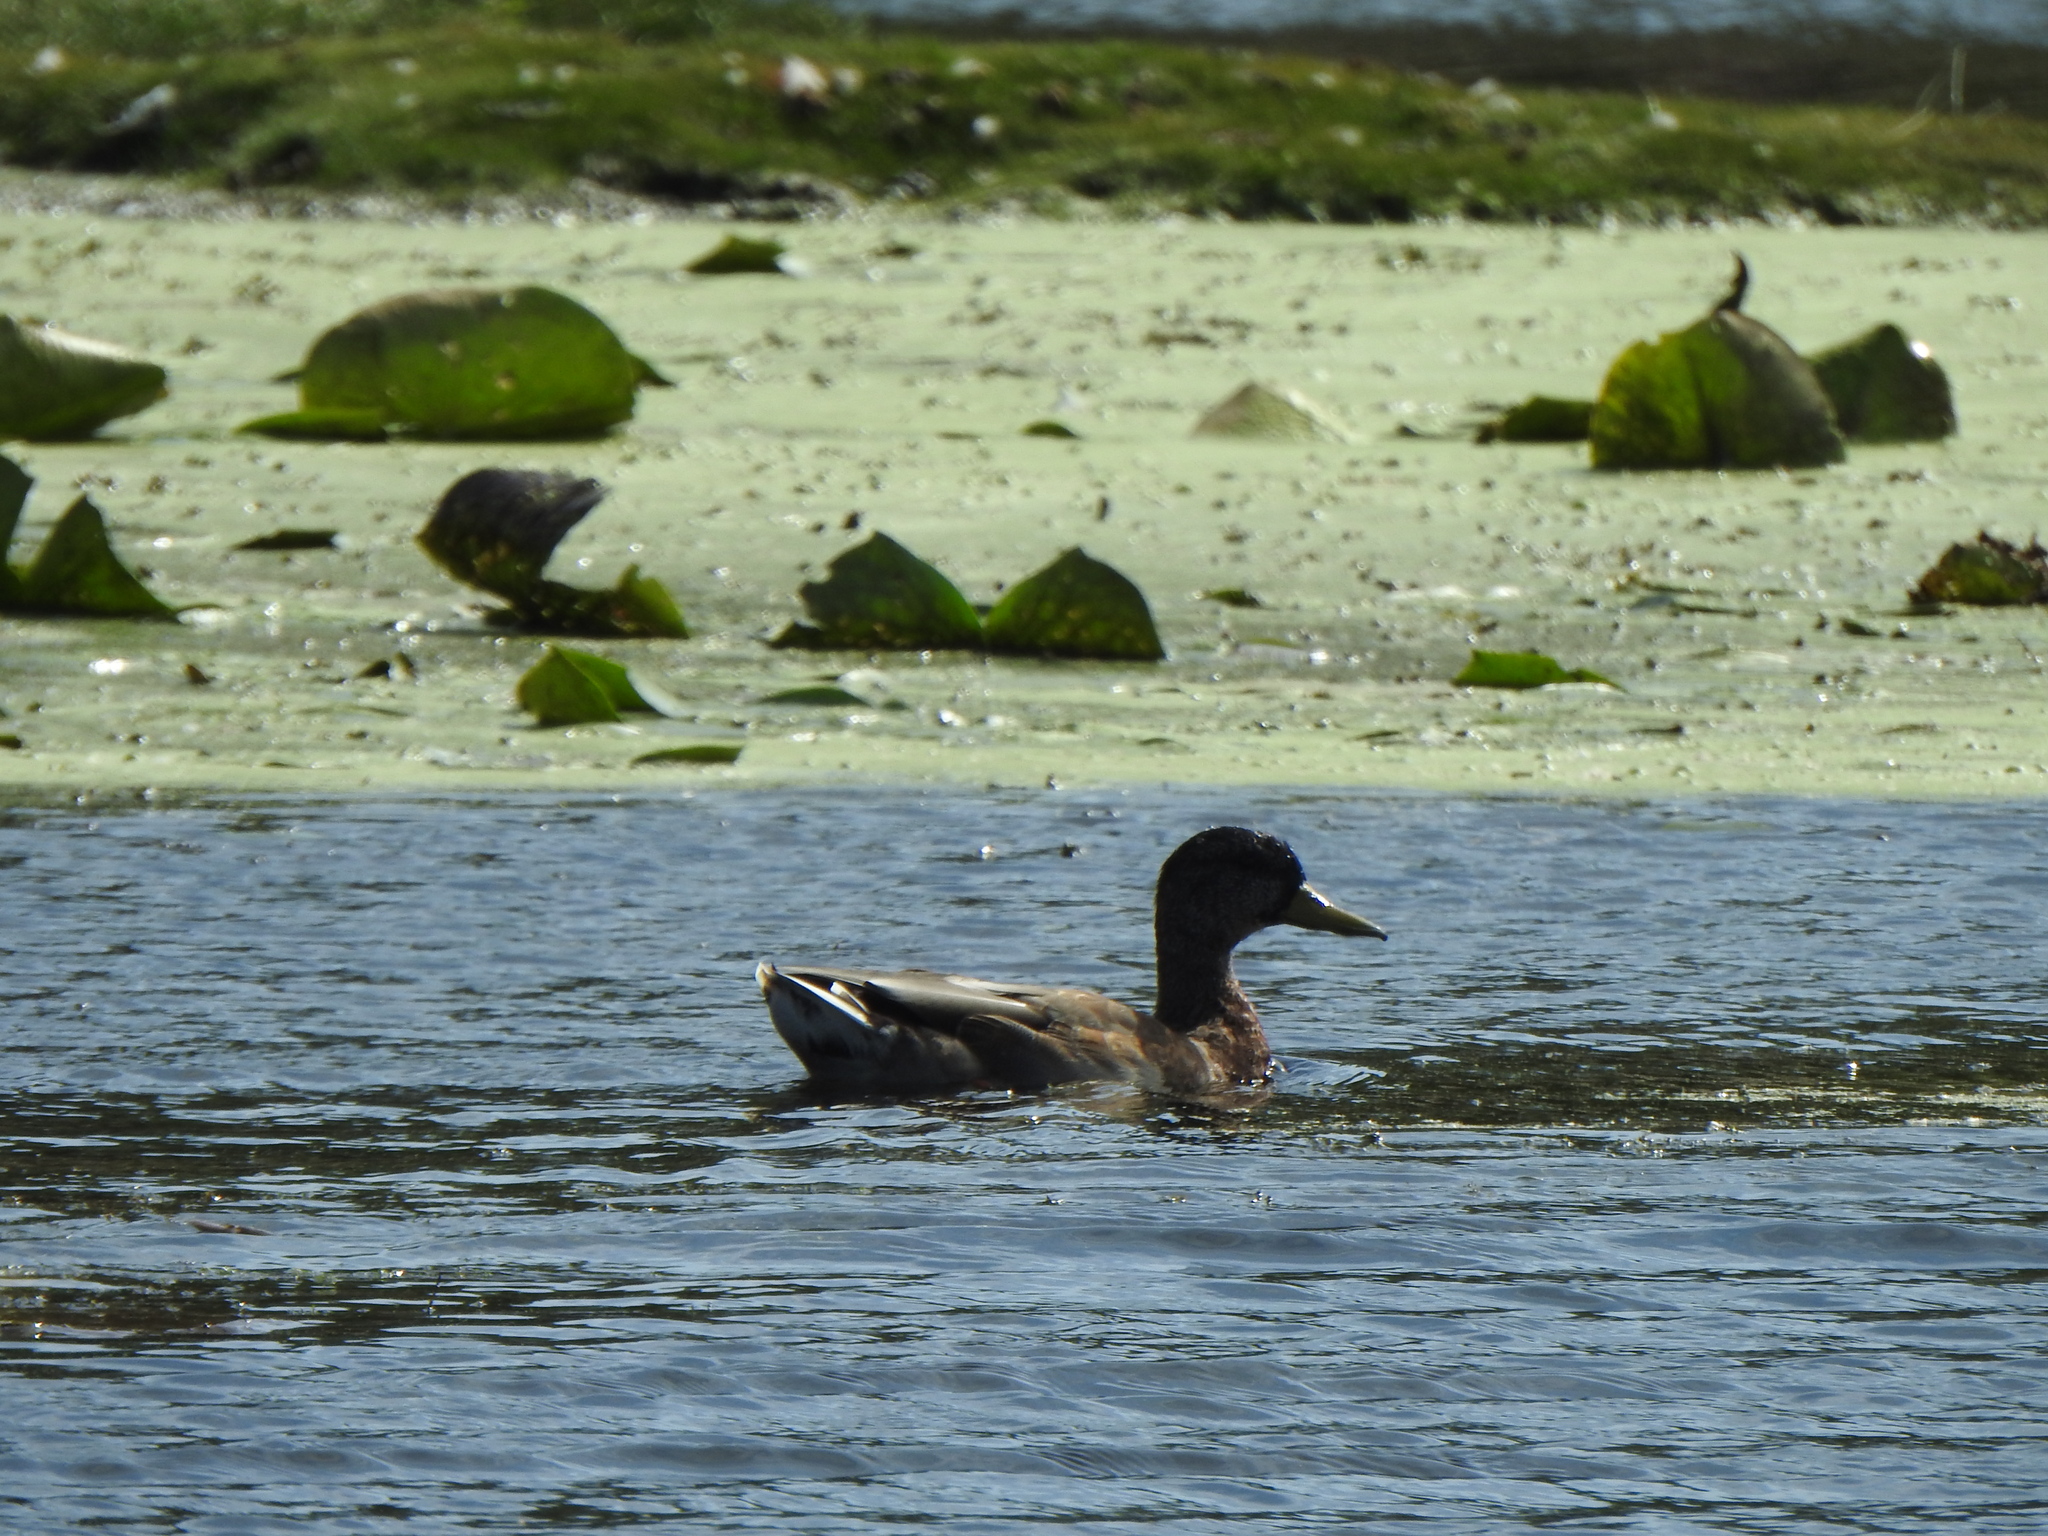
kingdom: Animalia
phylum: Chordata
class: Aves
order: Anseriformes
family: Anatidae
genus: Anas
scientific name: Anas platyrhynchos
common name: Mallard
